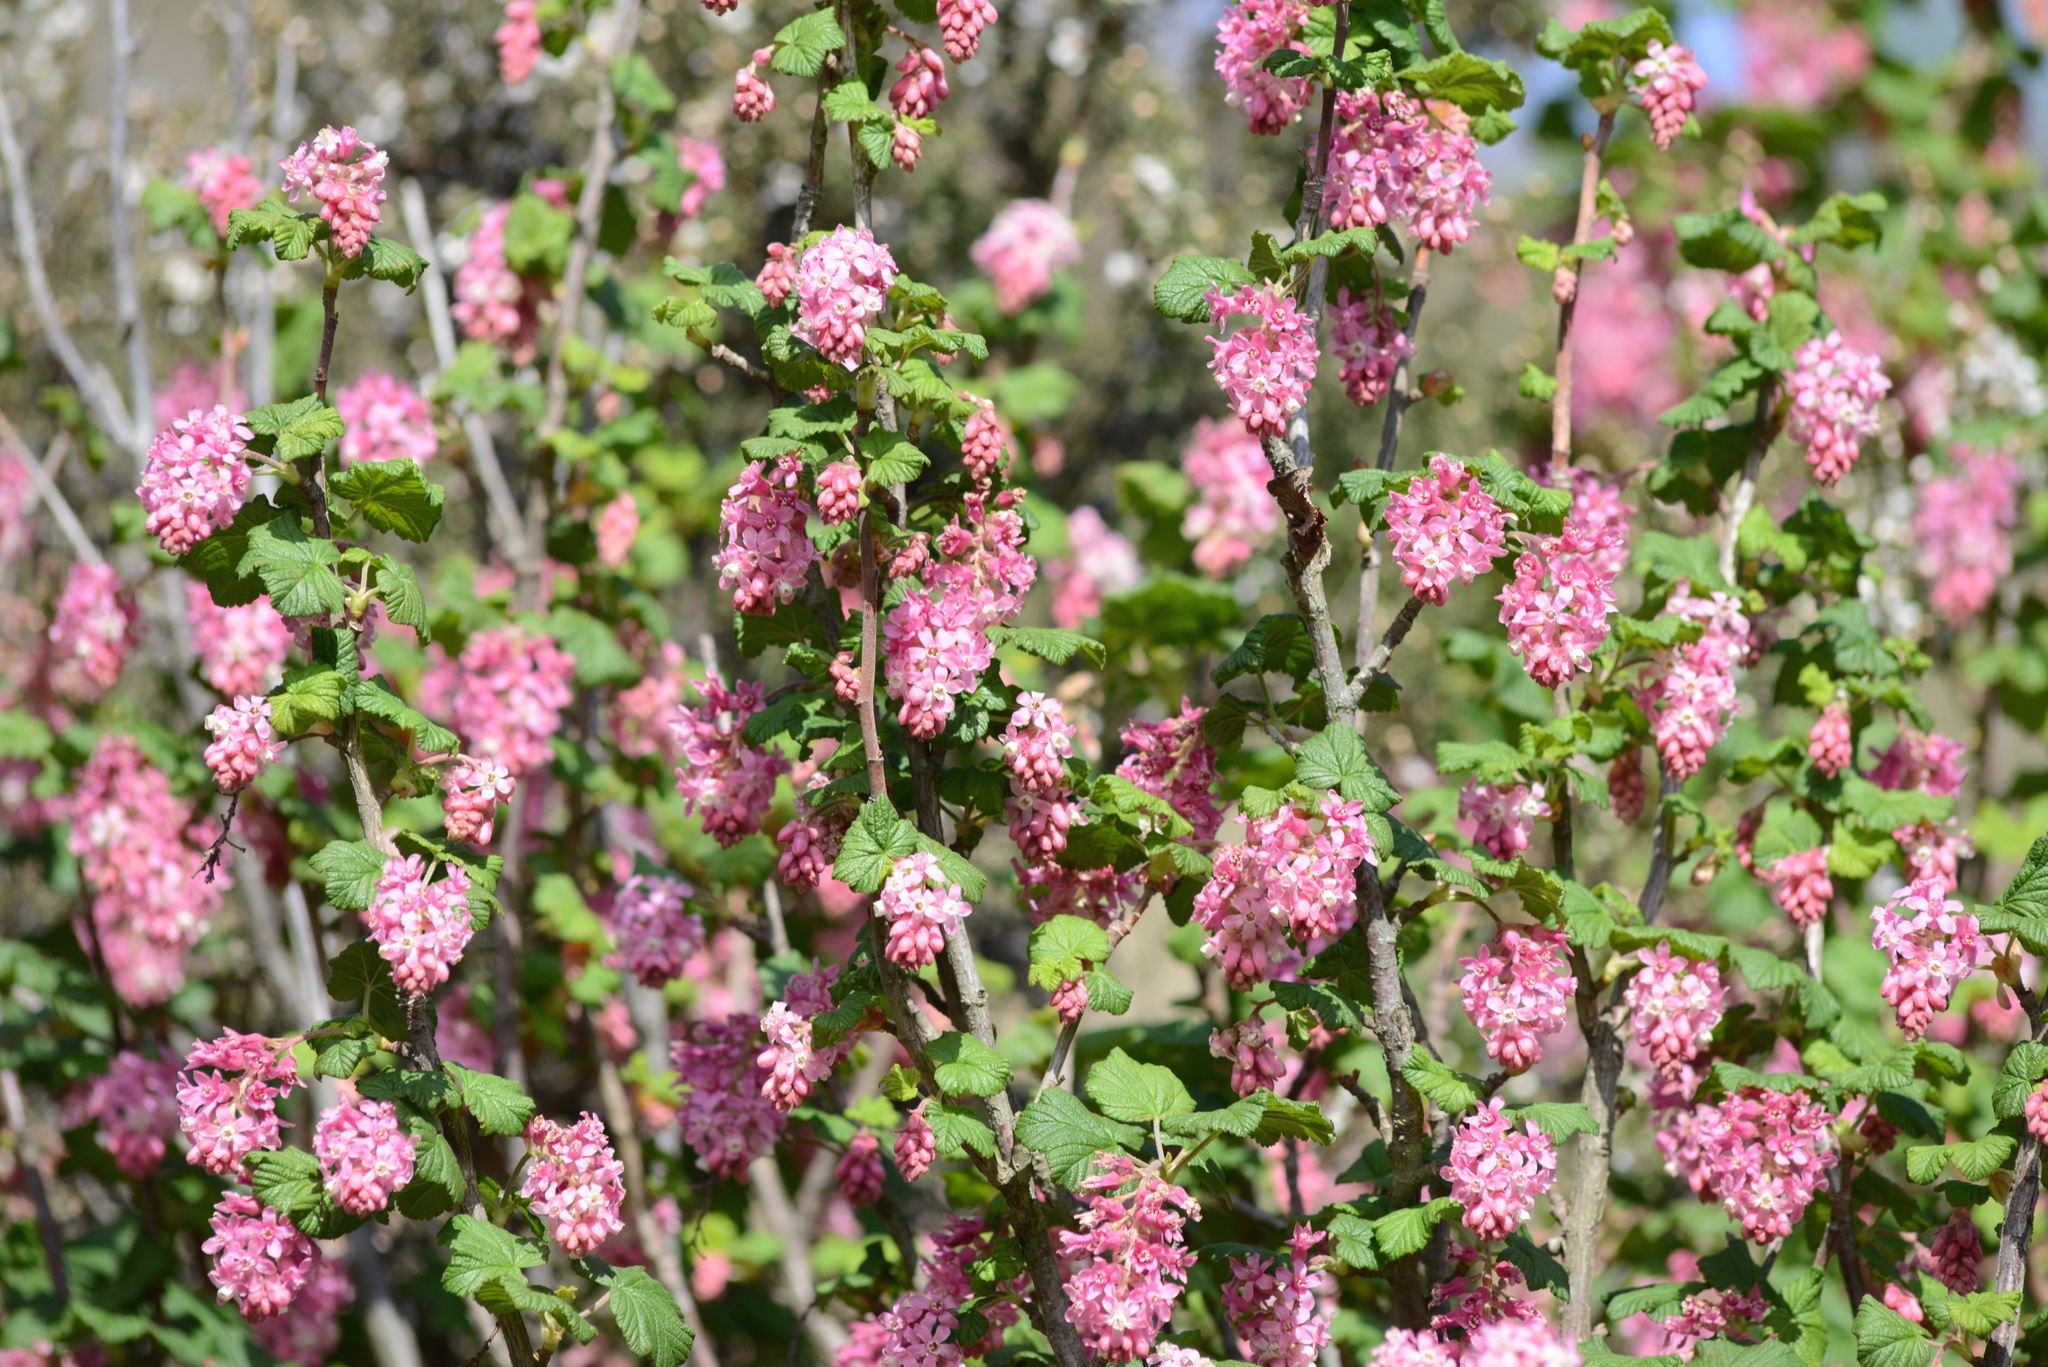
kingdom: Plantae
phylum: Tracheophyta
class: Magnoliopsida
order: Saxifragales
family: Grossulariaceae
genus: Ribes
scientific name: Ribes sanguineum
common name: Flowering currant
